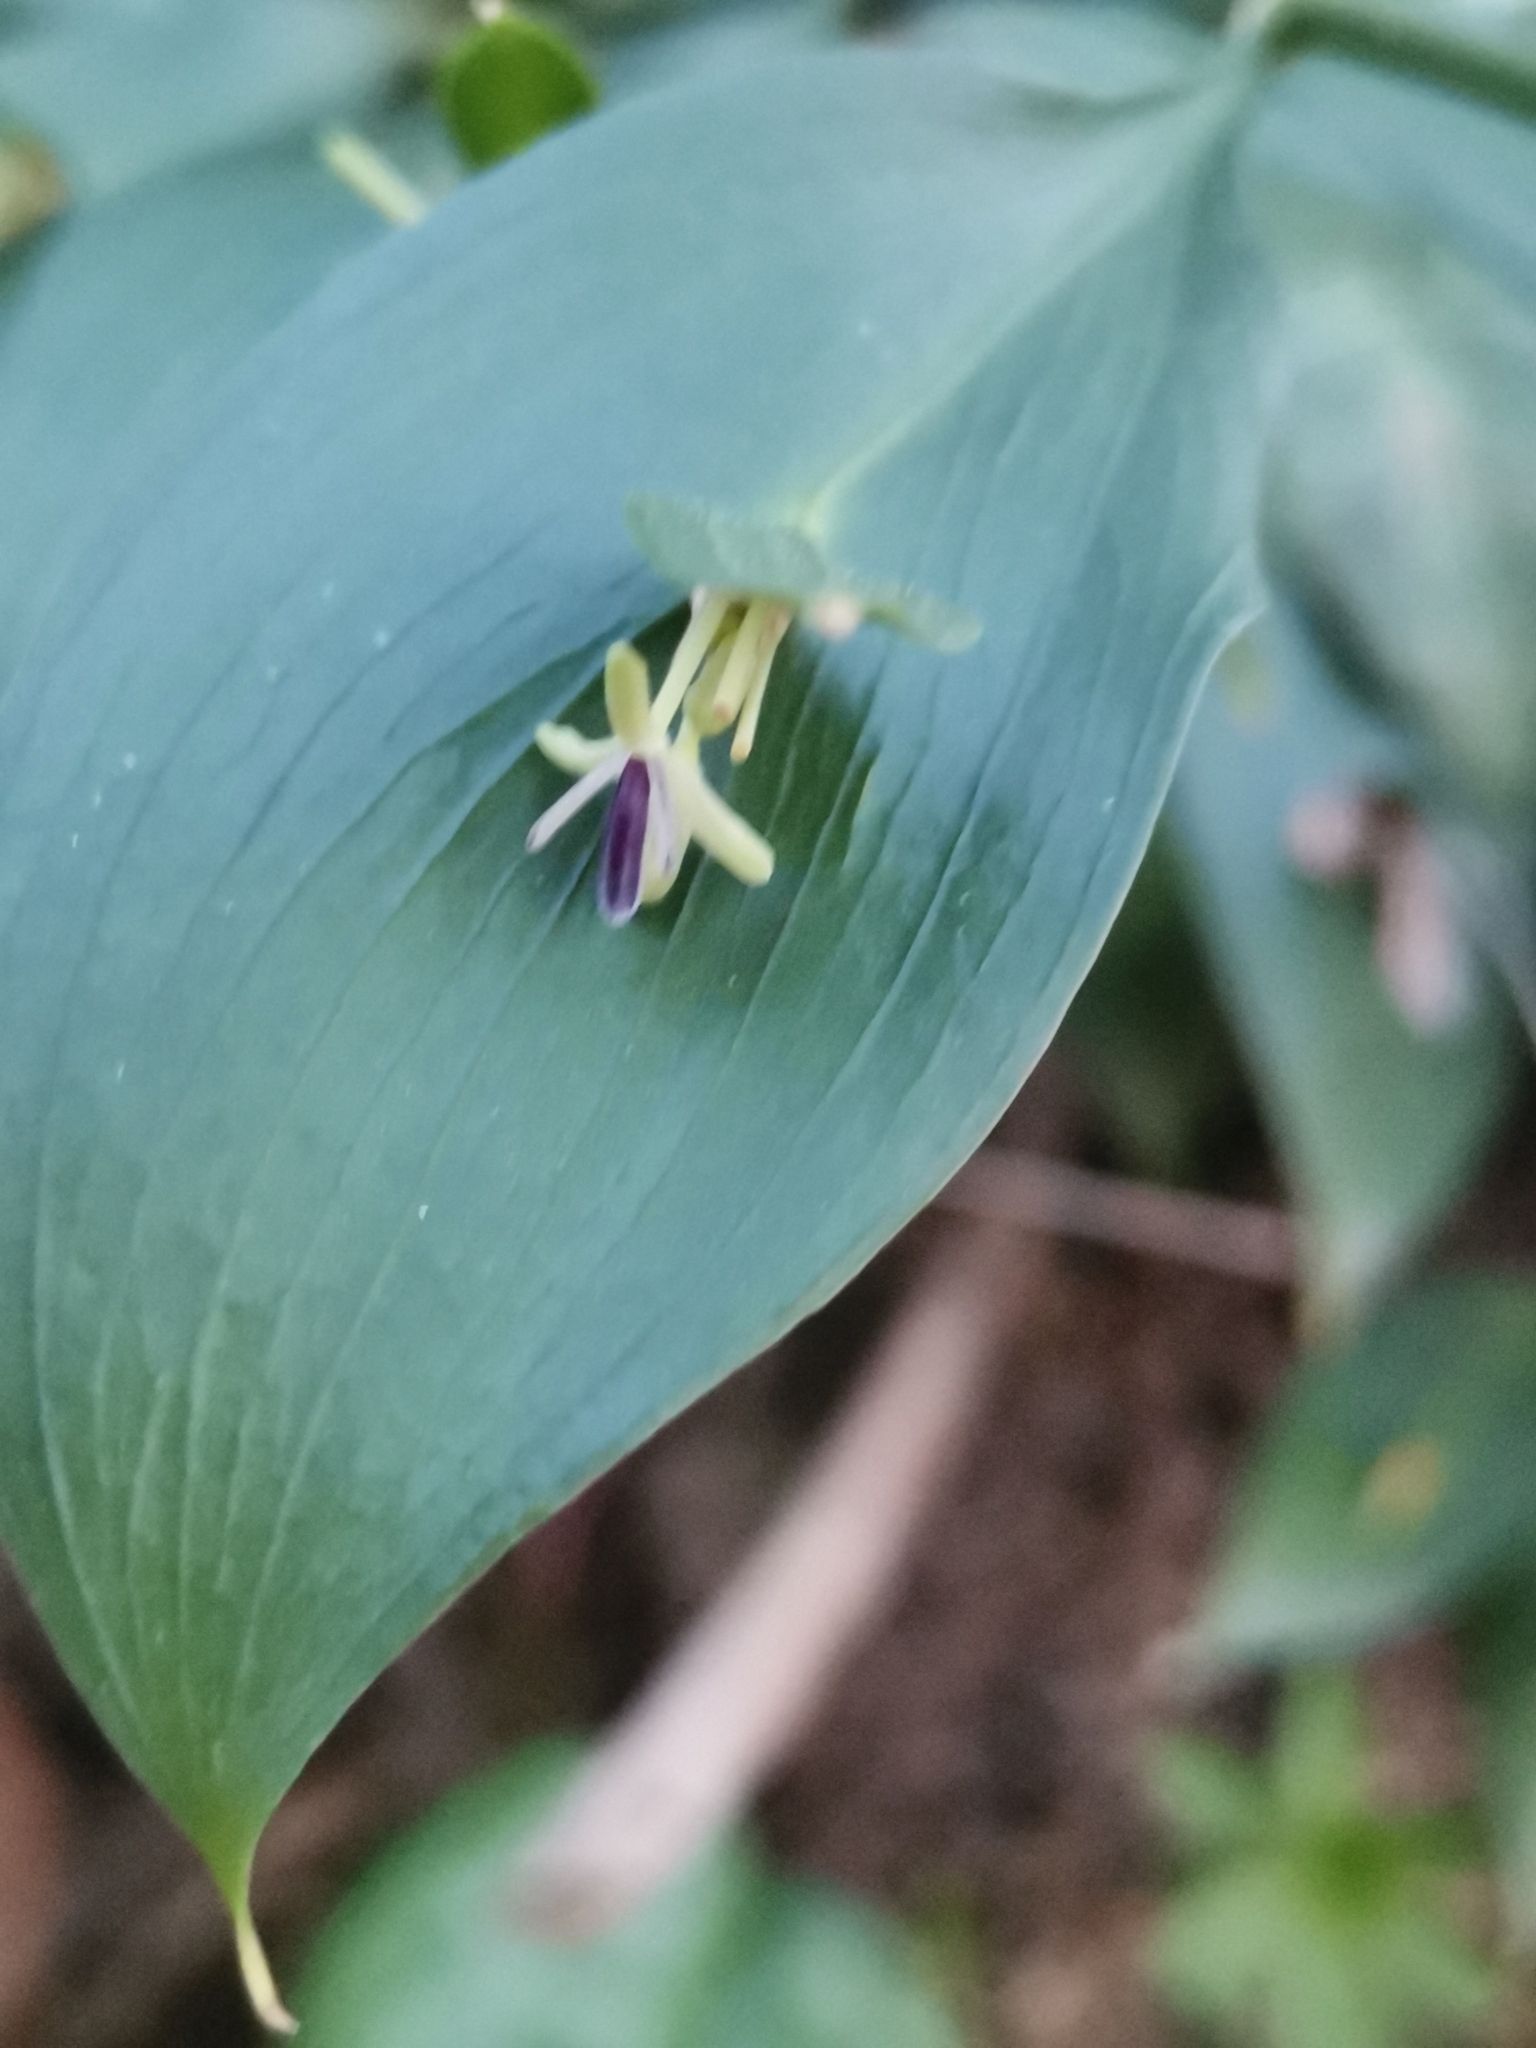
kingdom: Plantae
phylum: Tracheophyta
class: Liliopsida
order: Asparagales
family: Asparagaceae
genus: Ruscus
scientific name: Ruscus hypoglossum
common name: Spineless butcher's-broom
